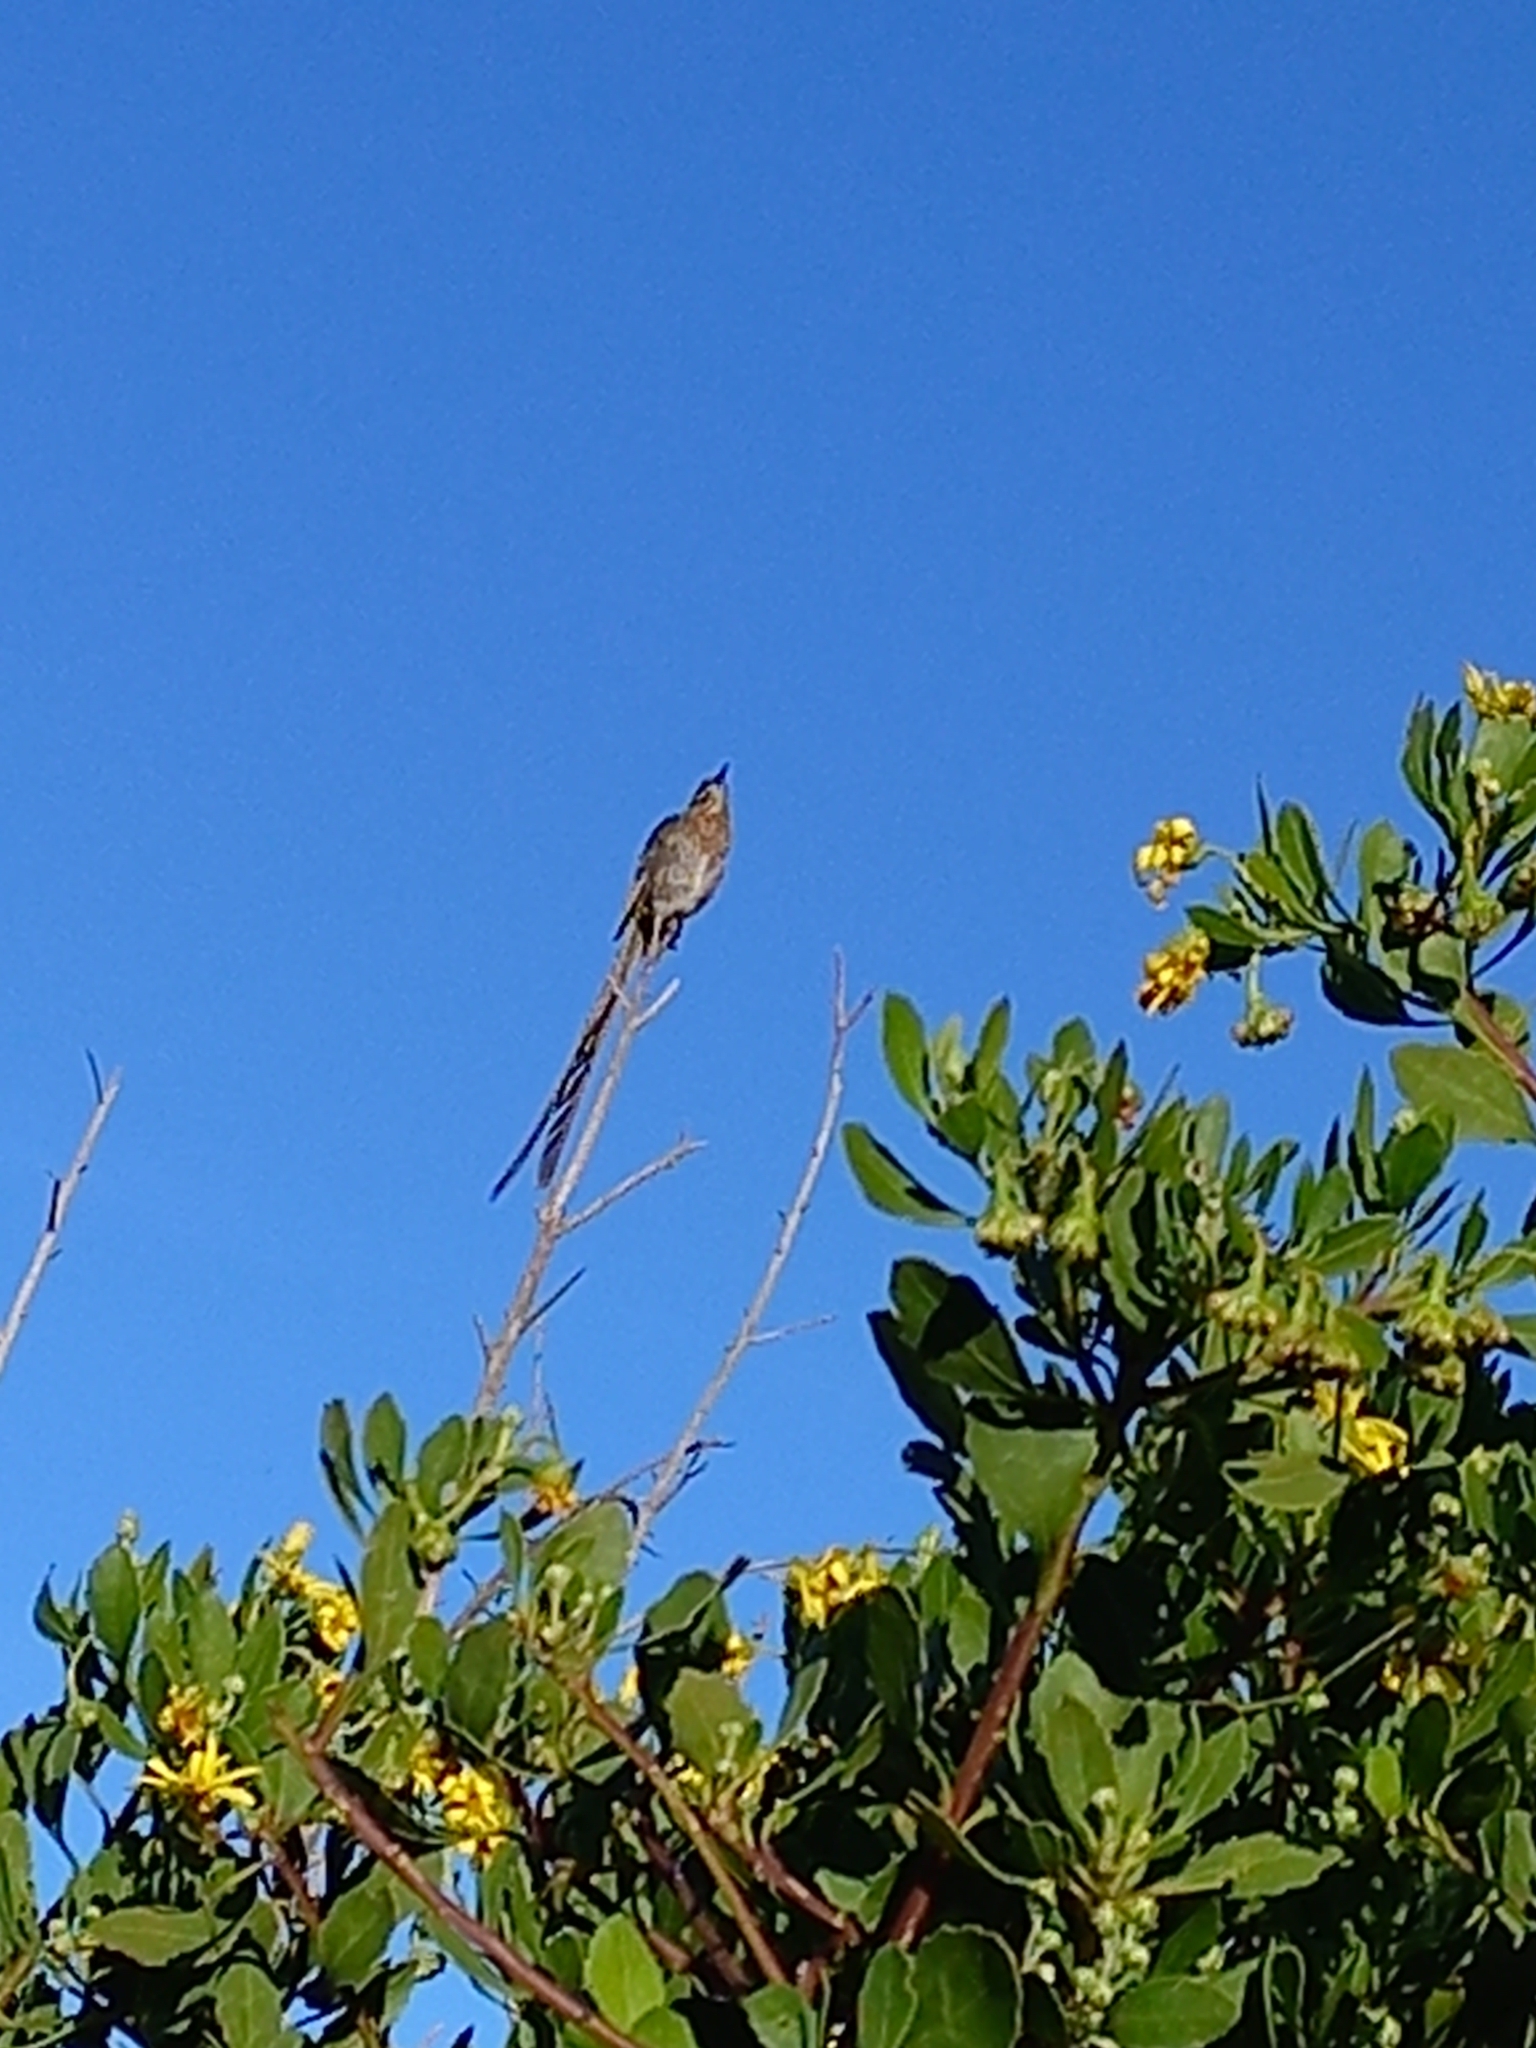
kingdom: Animalia
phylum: Chordata
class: Aves
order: Passeriformes
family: Promeropidae
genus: Promerops
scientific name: Promerops cafer
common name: Cape sugarbird
